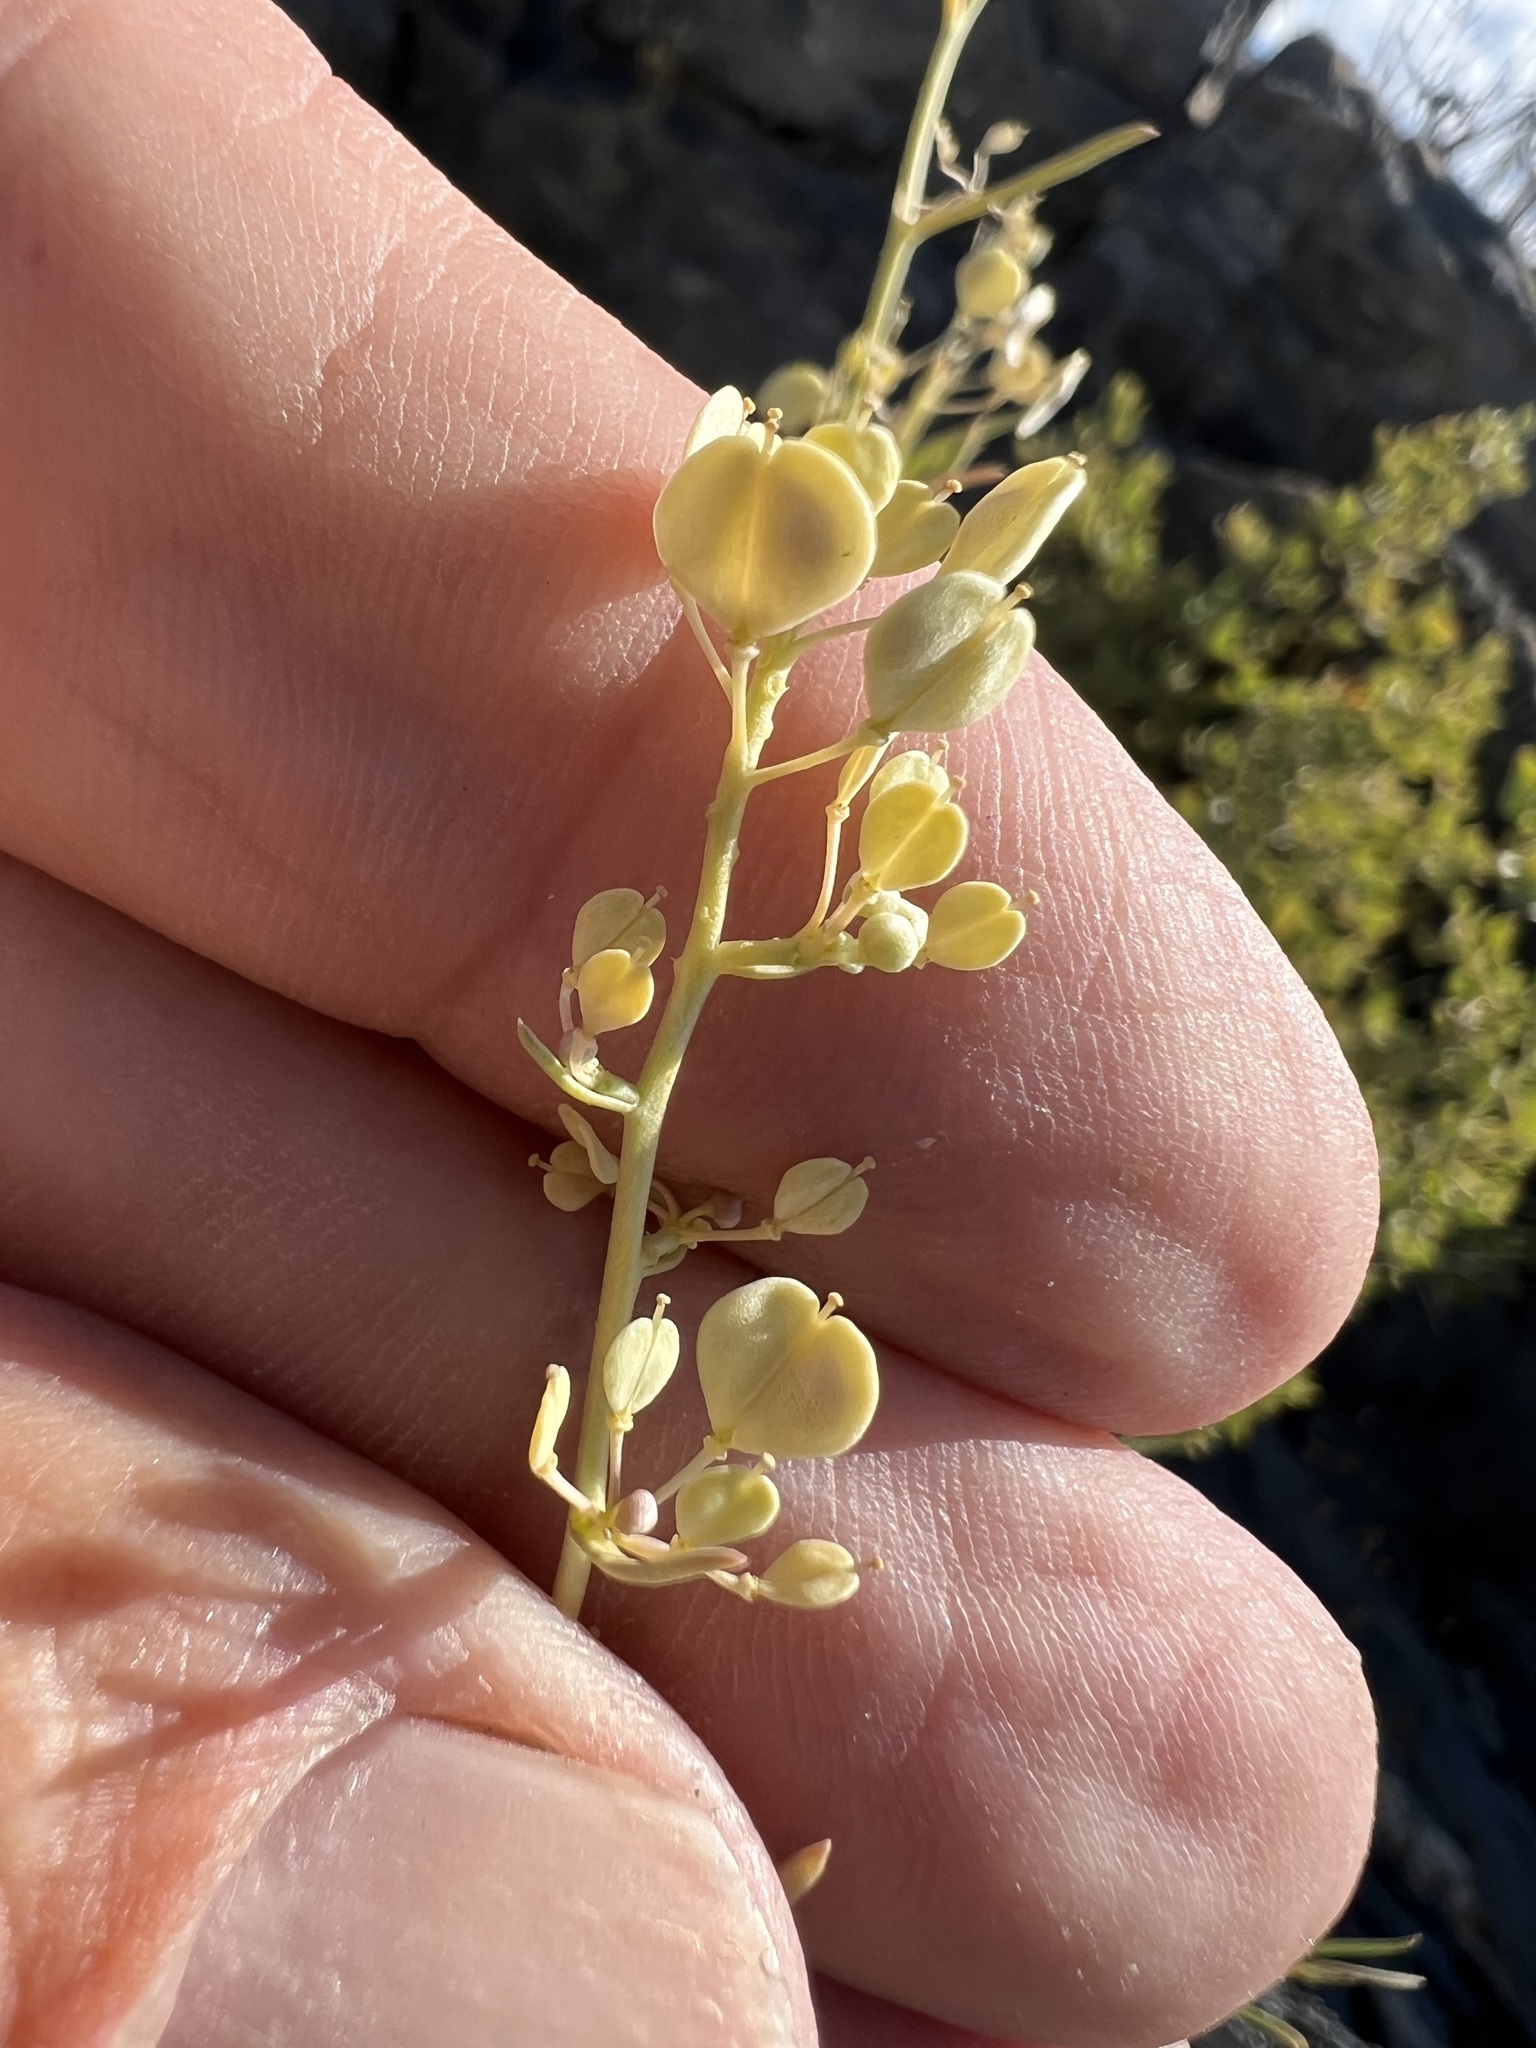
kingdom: Plantae
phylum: Tracheophyta
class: Magnoliopsida
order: Brassicales
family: Brassicaceae
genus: Lepidium
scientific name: Lepidium fremontii
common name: Fremont's pepperwort
